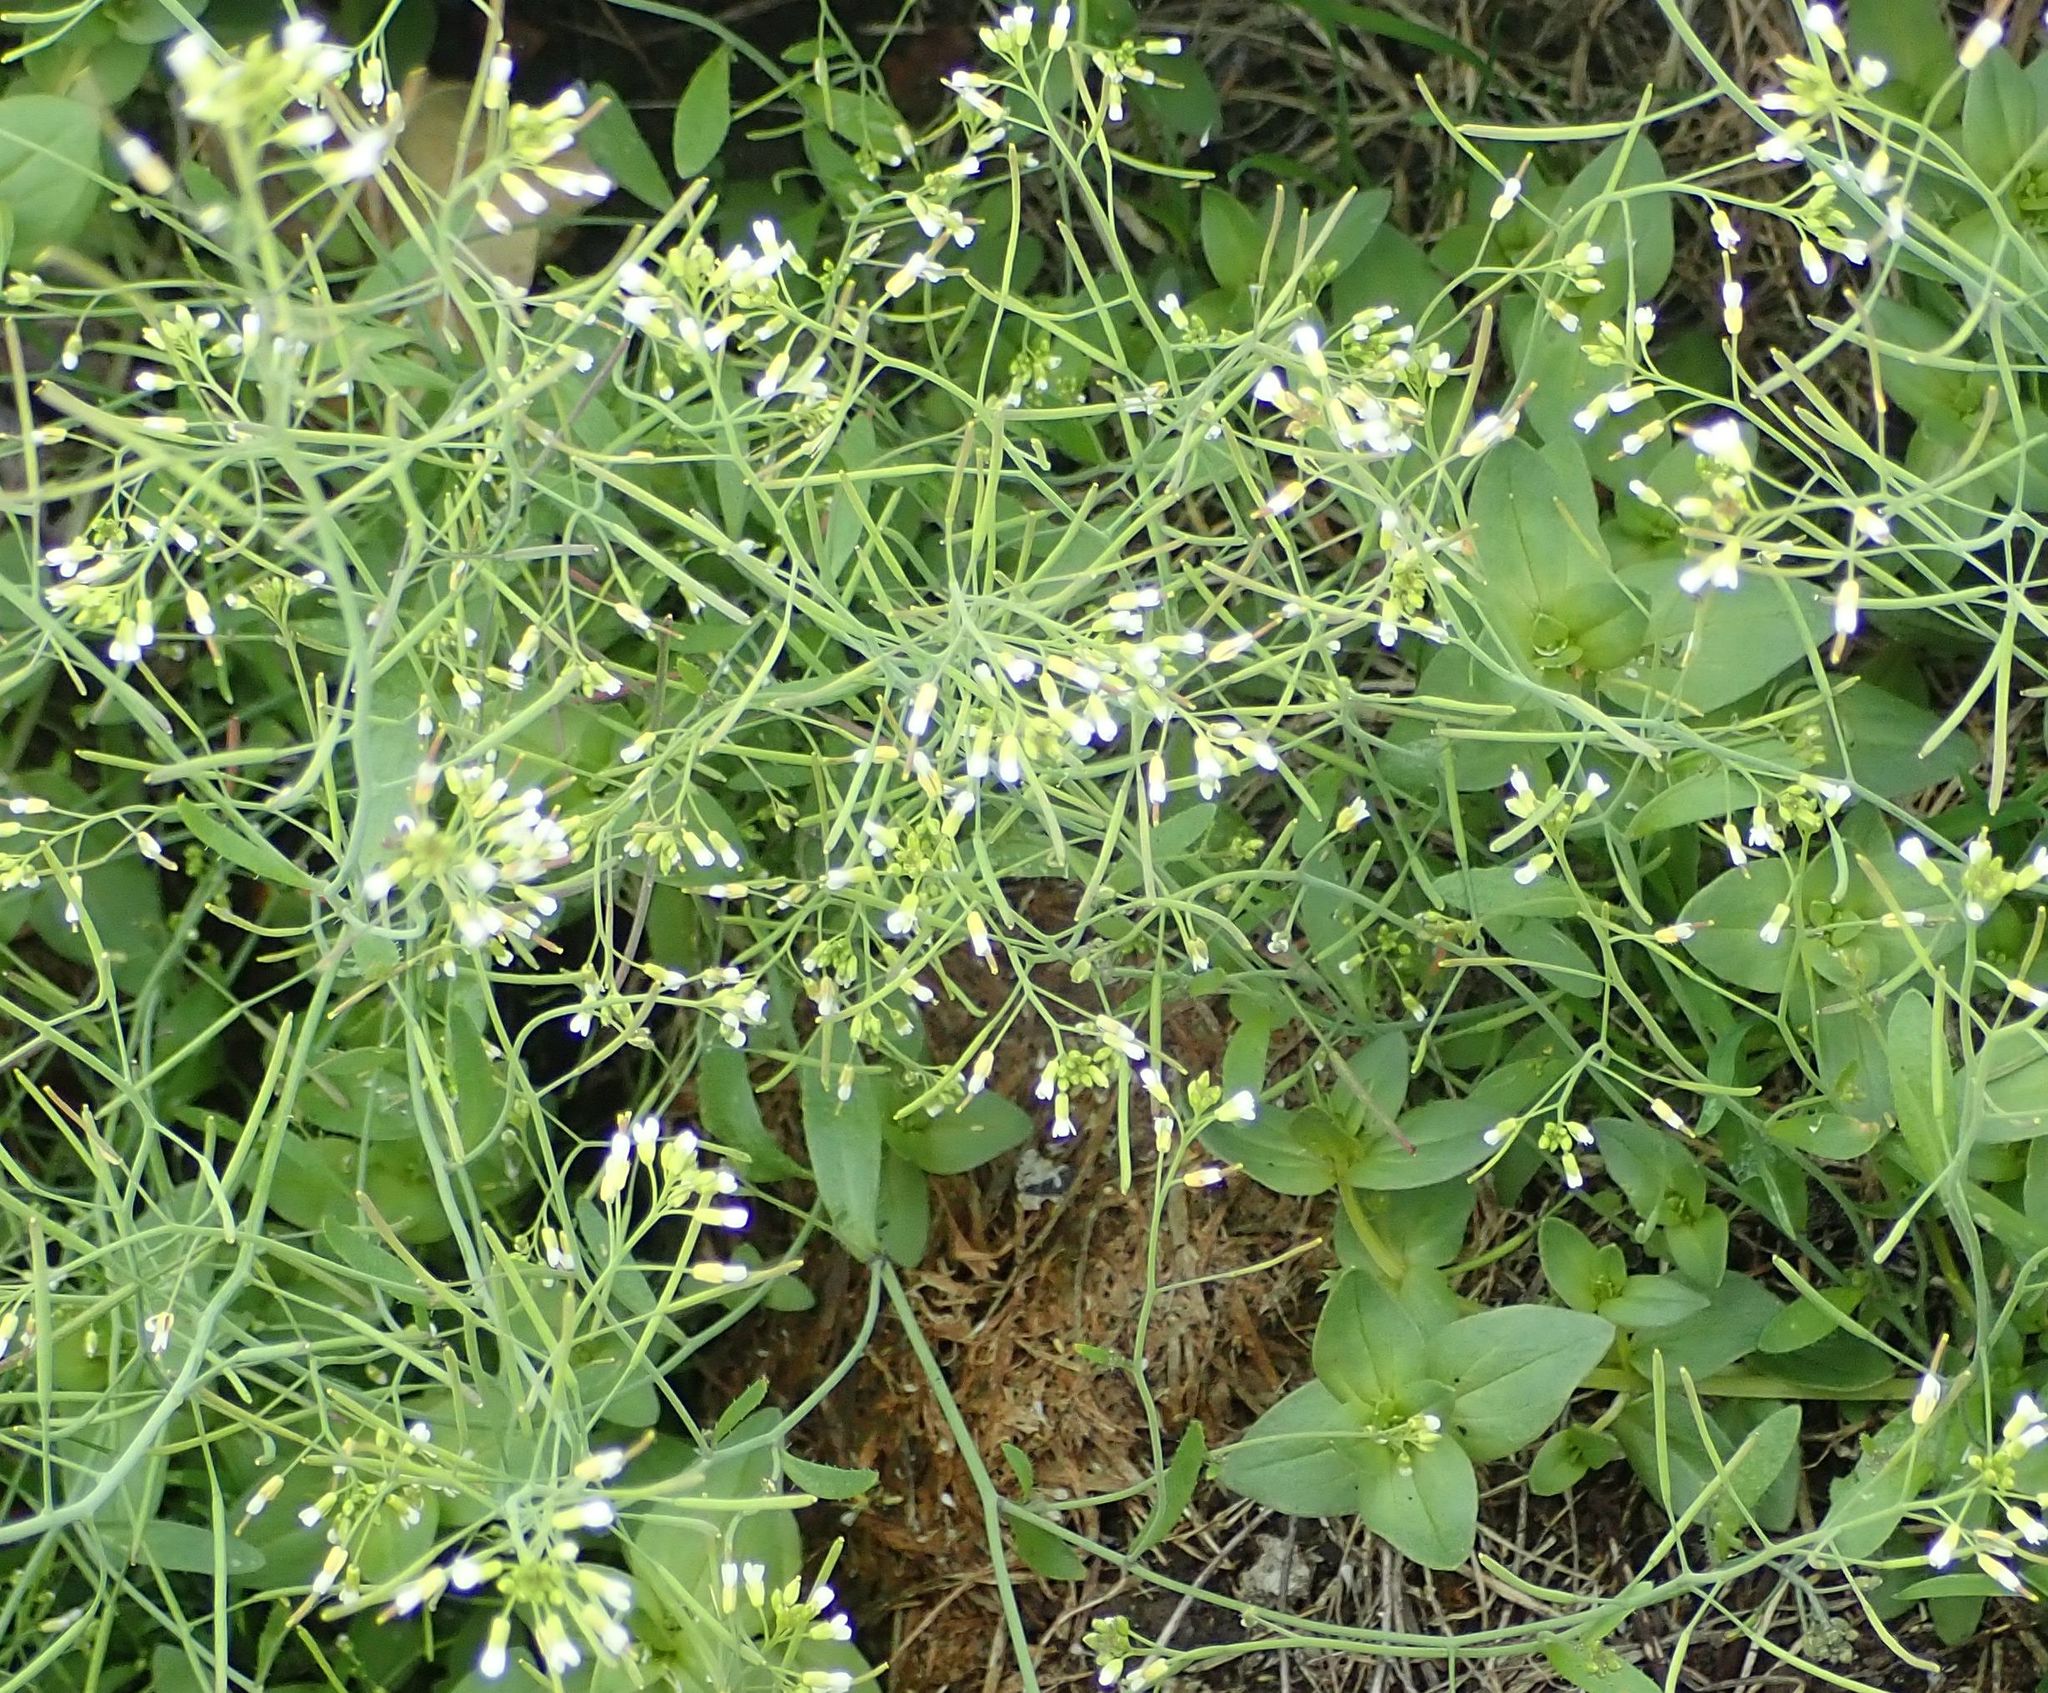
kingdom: Plantae
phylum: Tracheophyta
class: Magnoliopsida
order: Brassicales
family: Brassicaceae
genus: Arabidopsis
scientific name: Arabidopsis thaliana
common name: Thale cress
